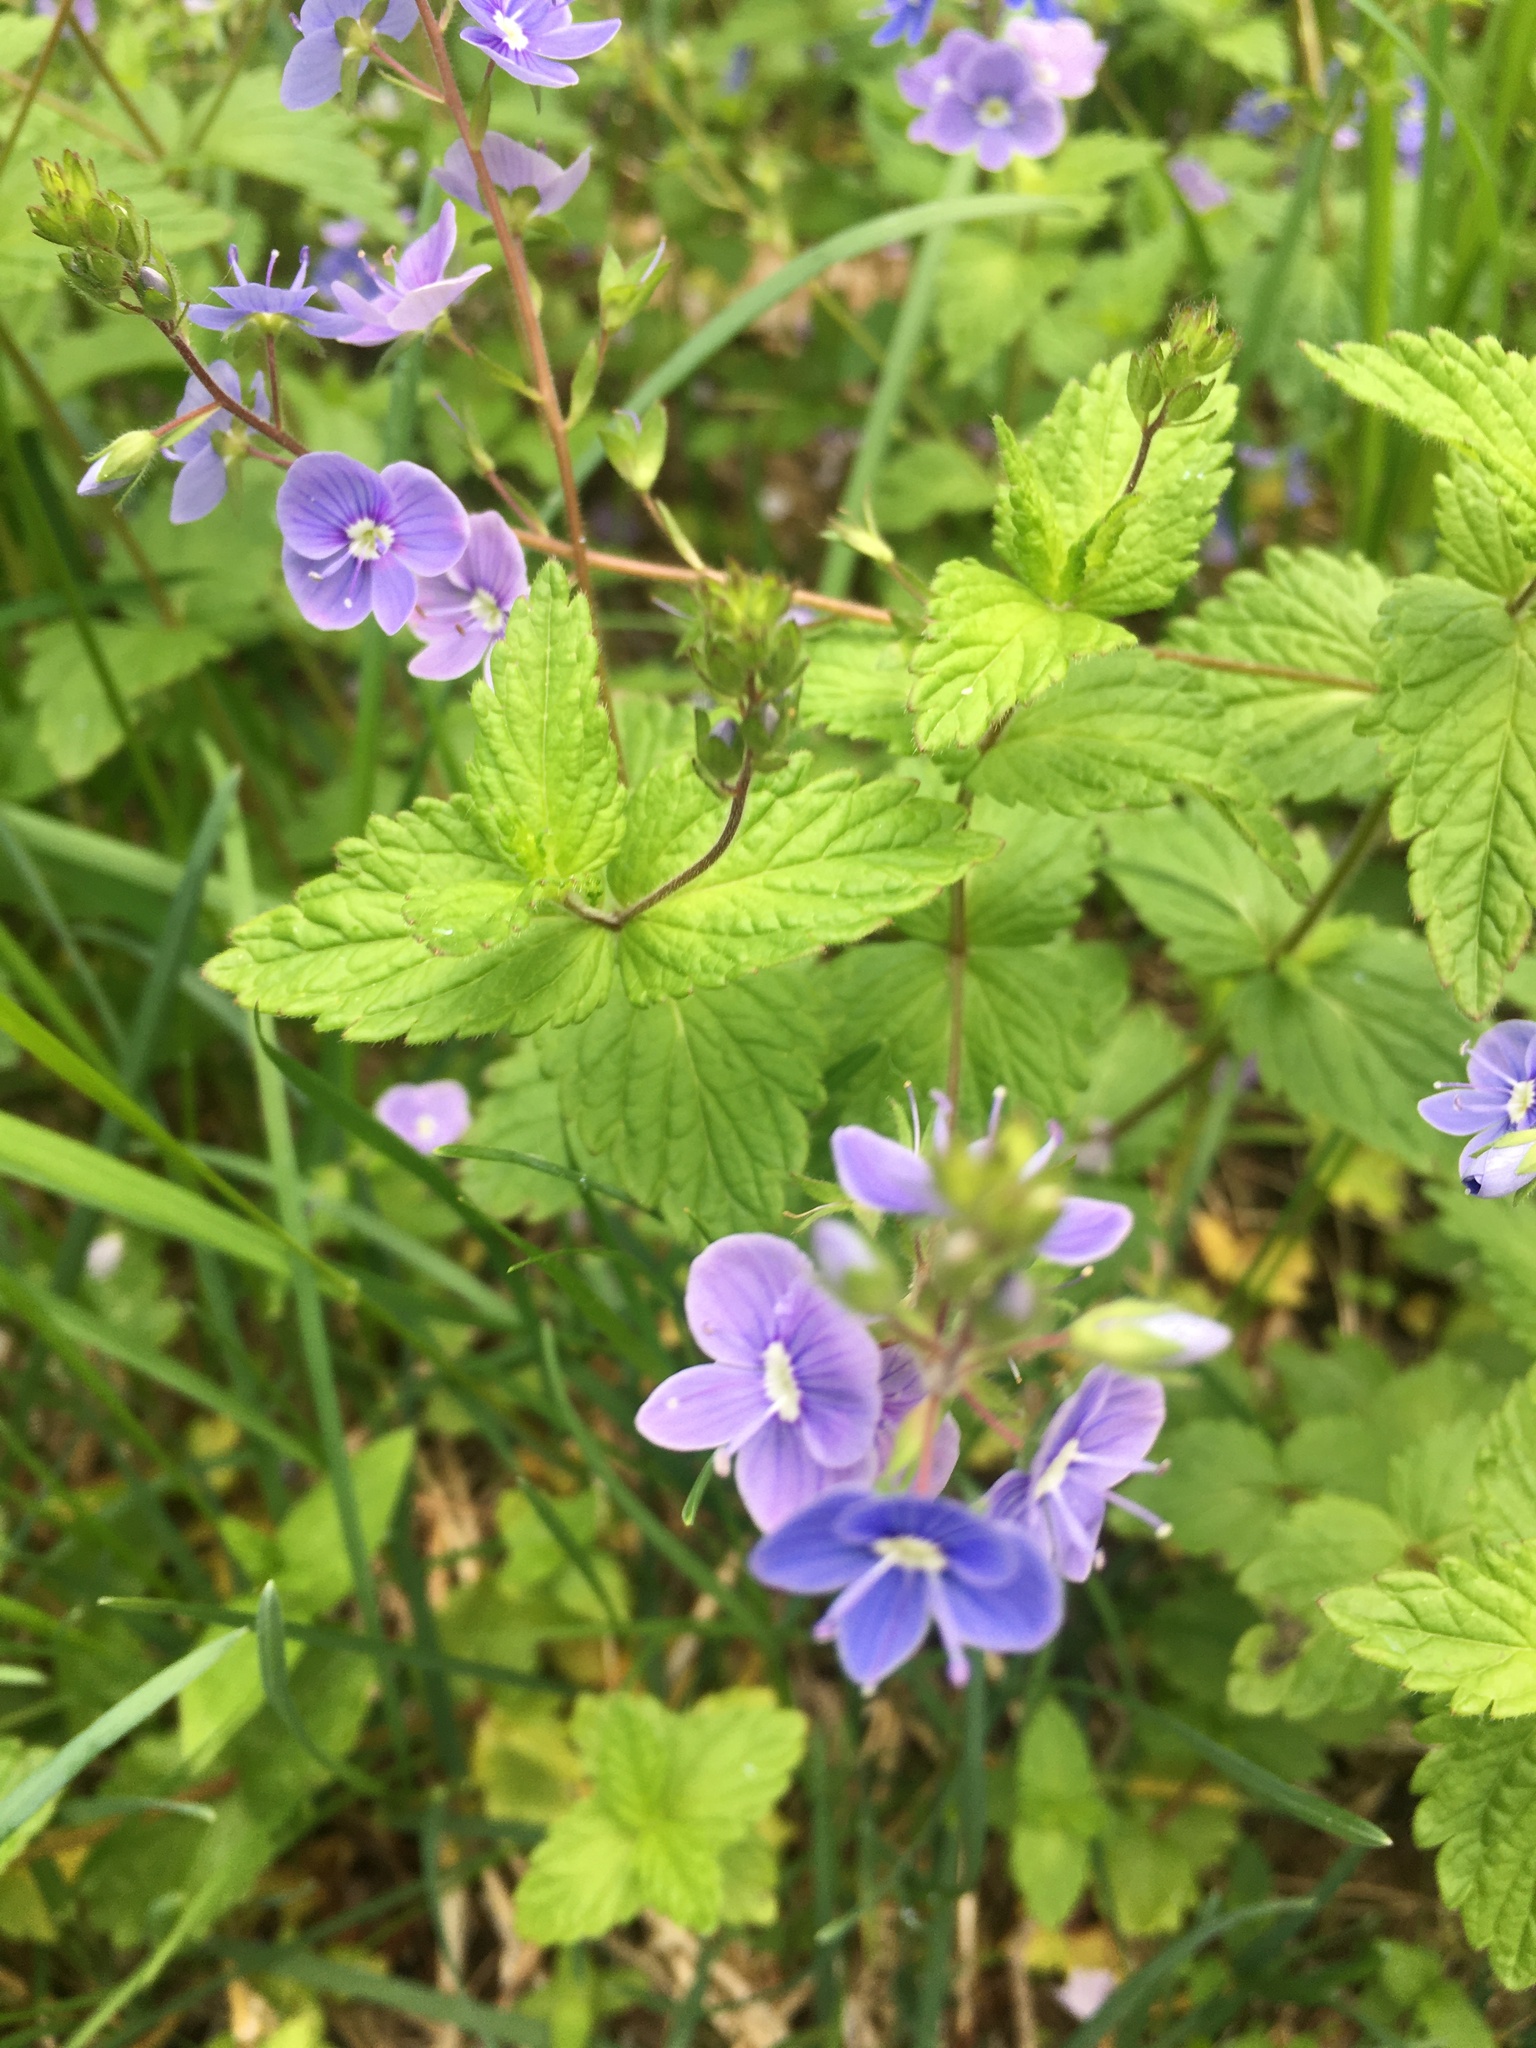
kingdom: Plantae
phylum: Tracheophyta
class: Magnoliopsida
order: Lamiales
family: Plantaginaceae
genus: Veronica
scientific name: Veronica chamaedrys
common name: Germander speedwell
